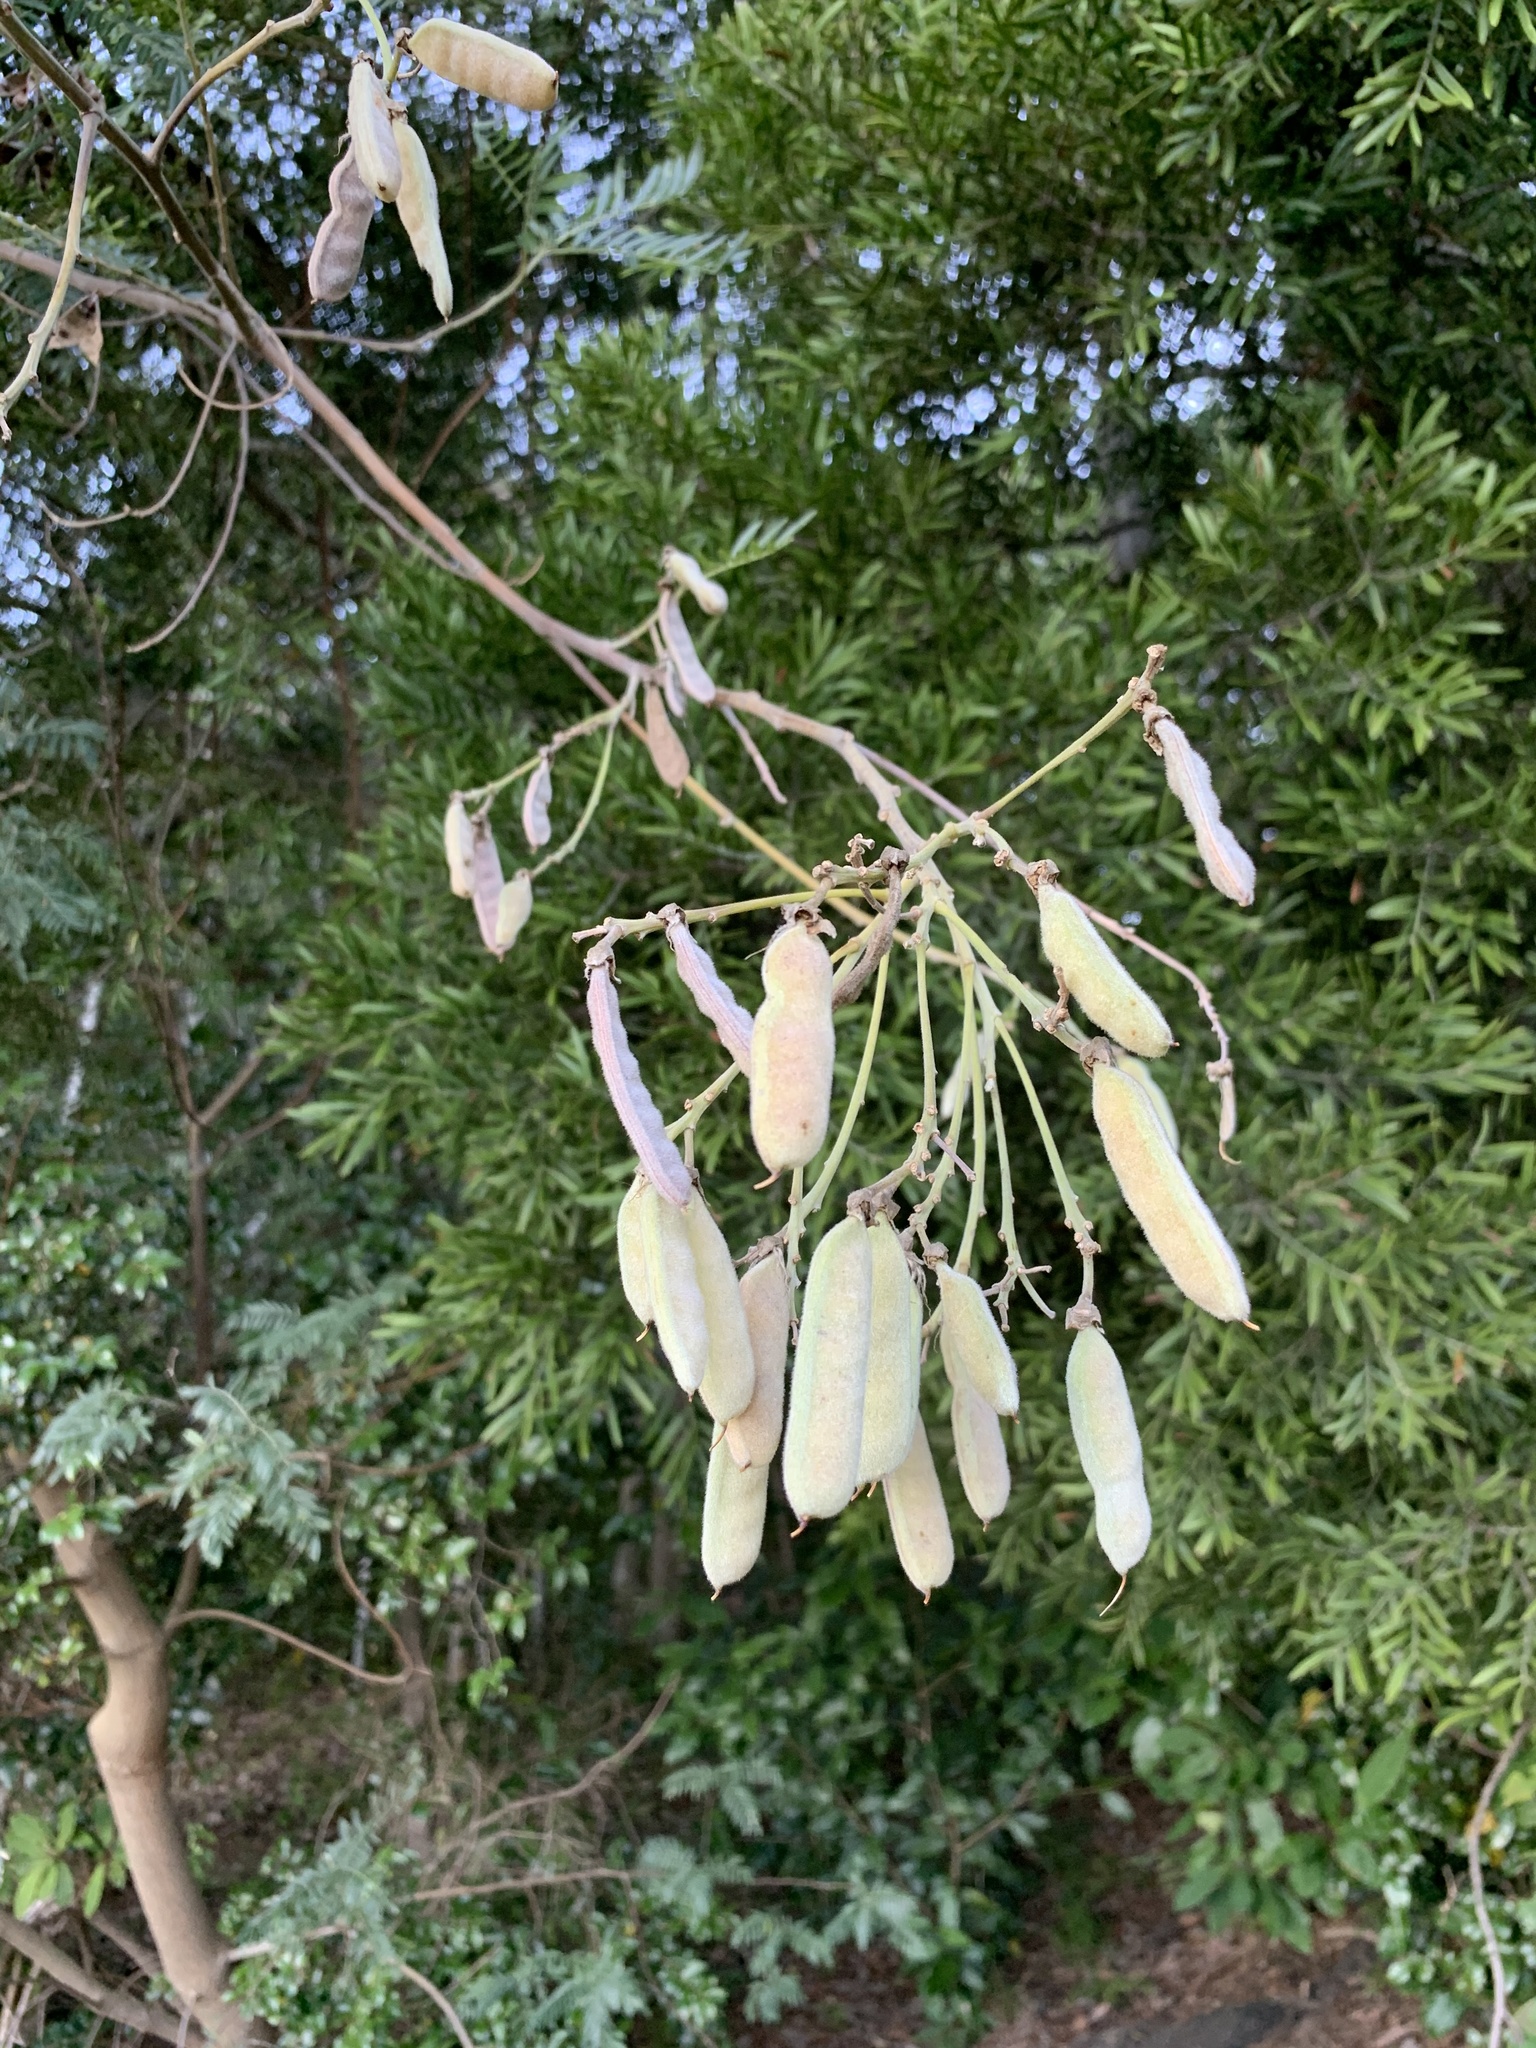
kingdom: Plantae
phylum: Tracheophyta
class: Magnoliopsida
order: Fabales
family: Fabaceae
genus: Virgilia
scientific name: Virgilia oroboides
